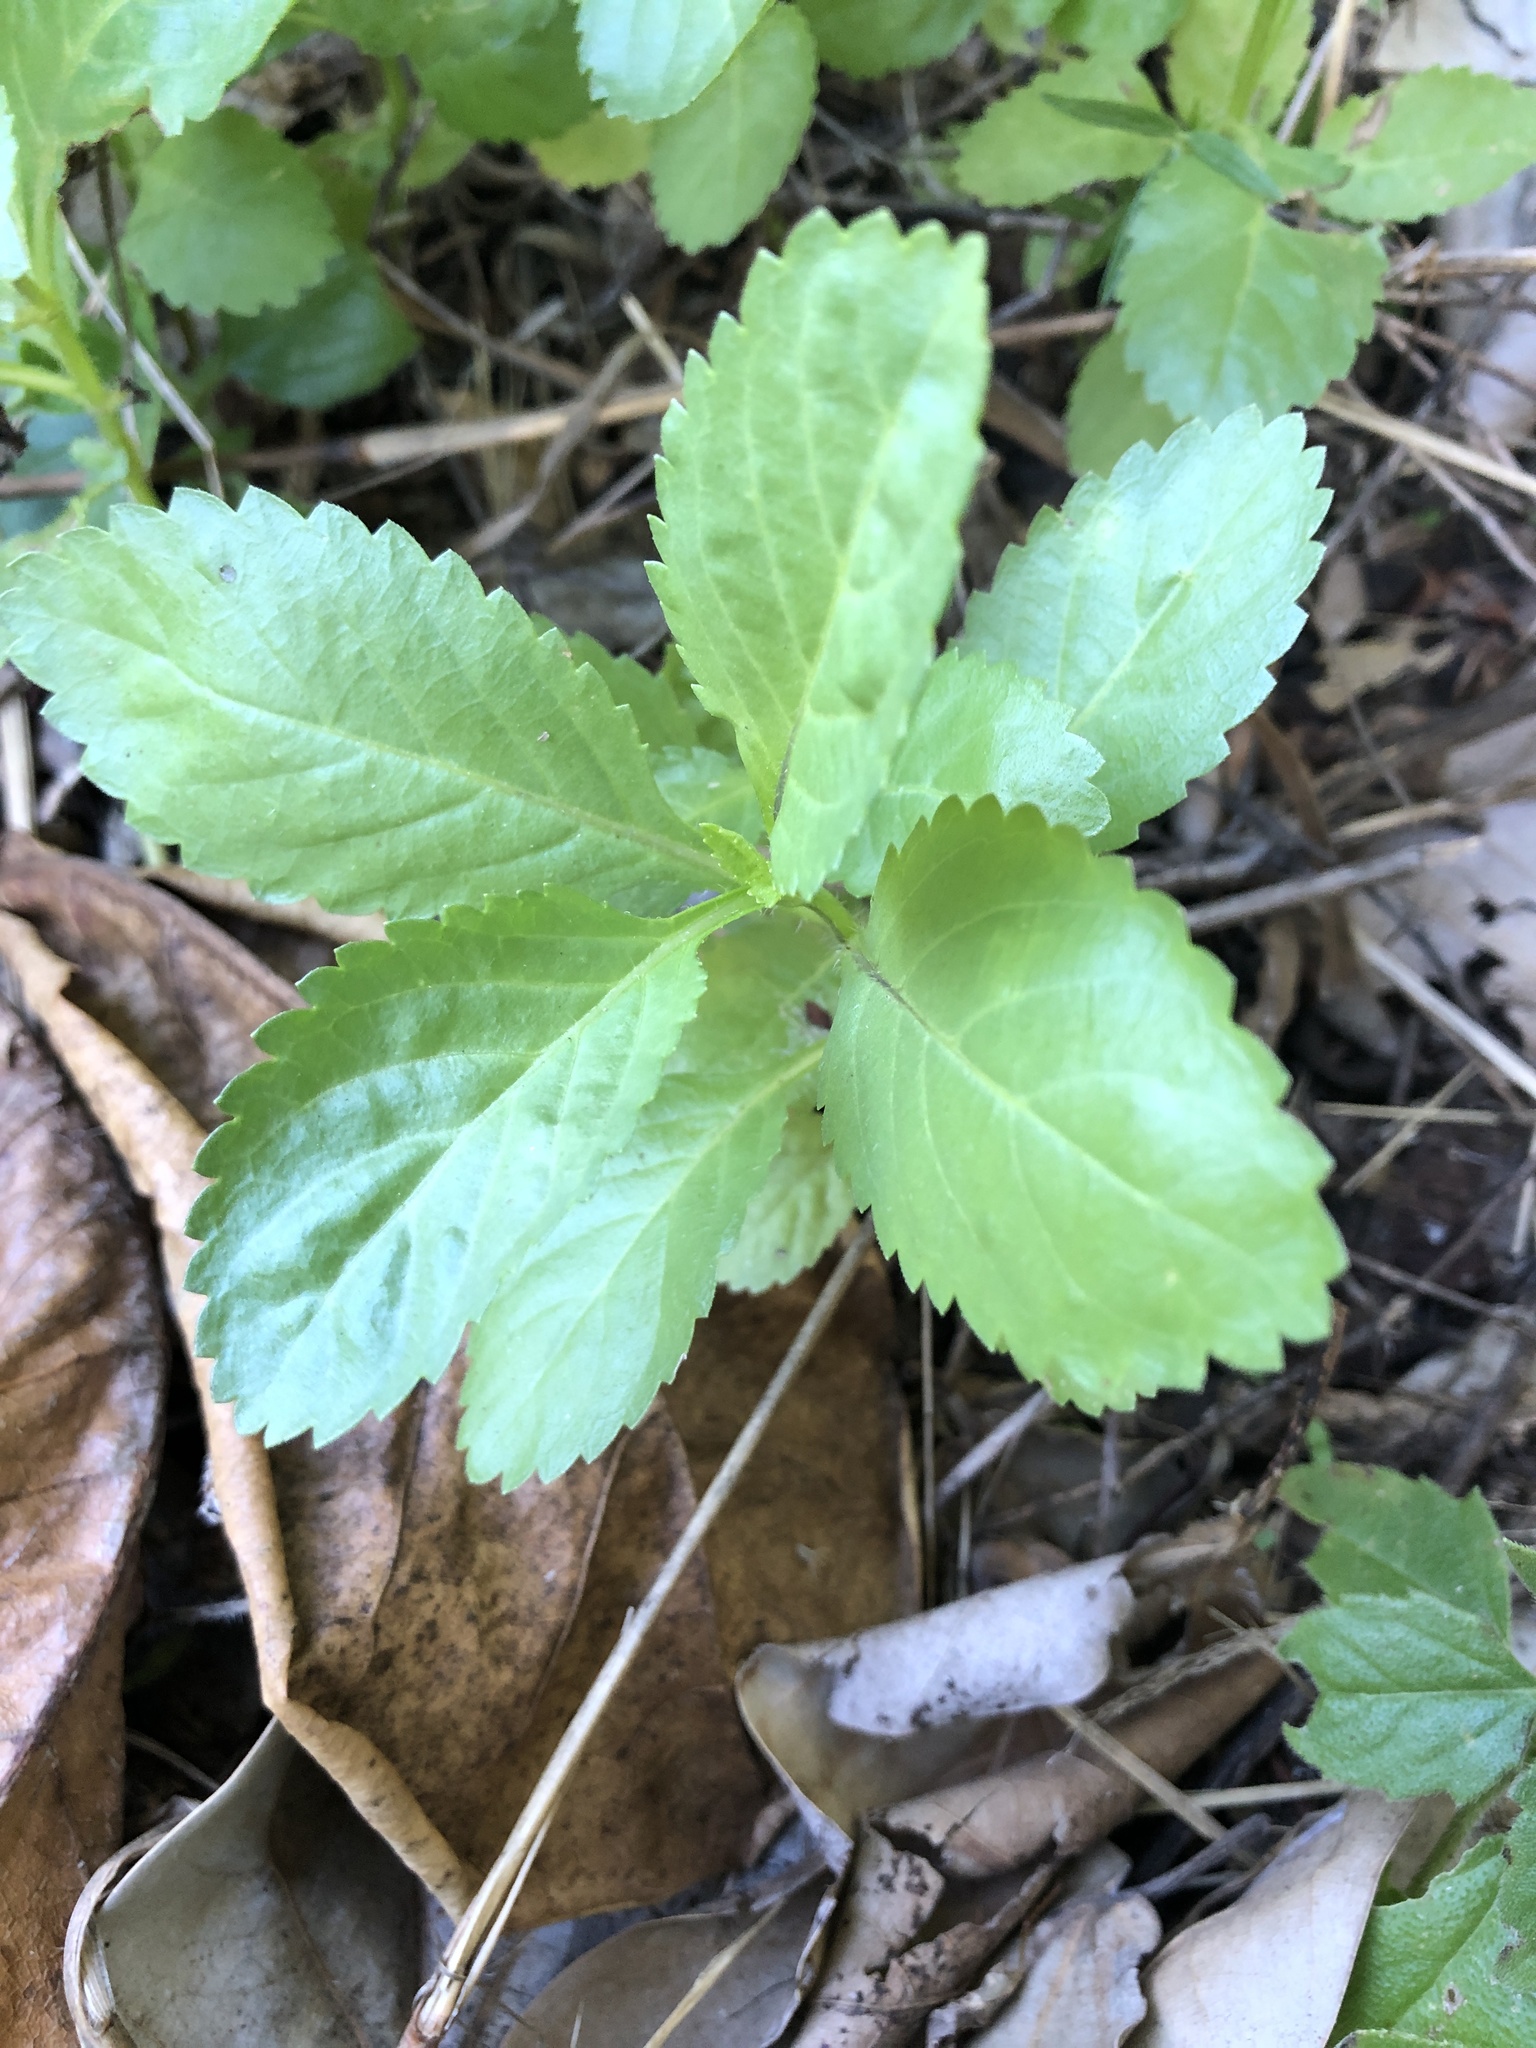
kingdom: Plantae
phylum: Tracheophyta
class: Magnoliopsida
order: Lamiales
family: Verbenaceae
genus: Stachytarpheta
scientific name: Stachytarpheta jamaicensis
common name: Light-blue snakeweed
